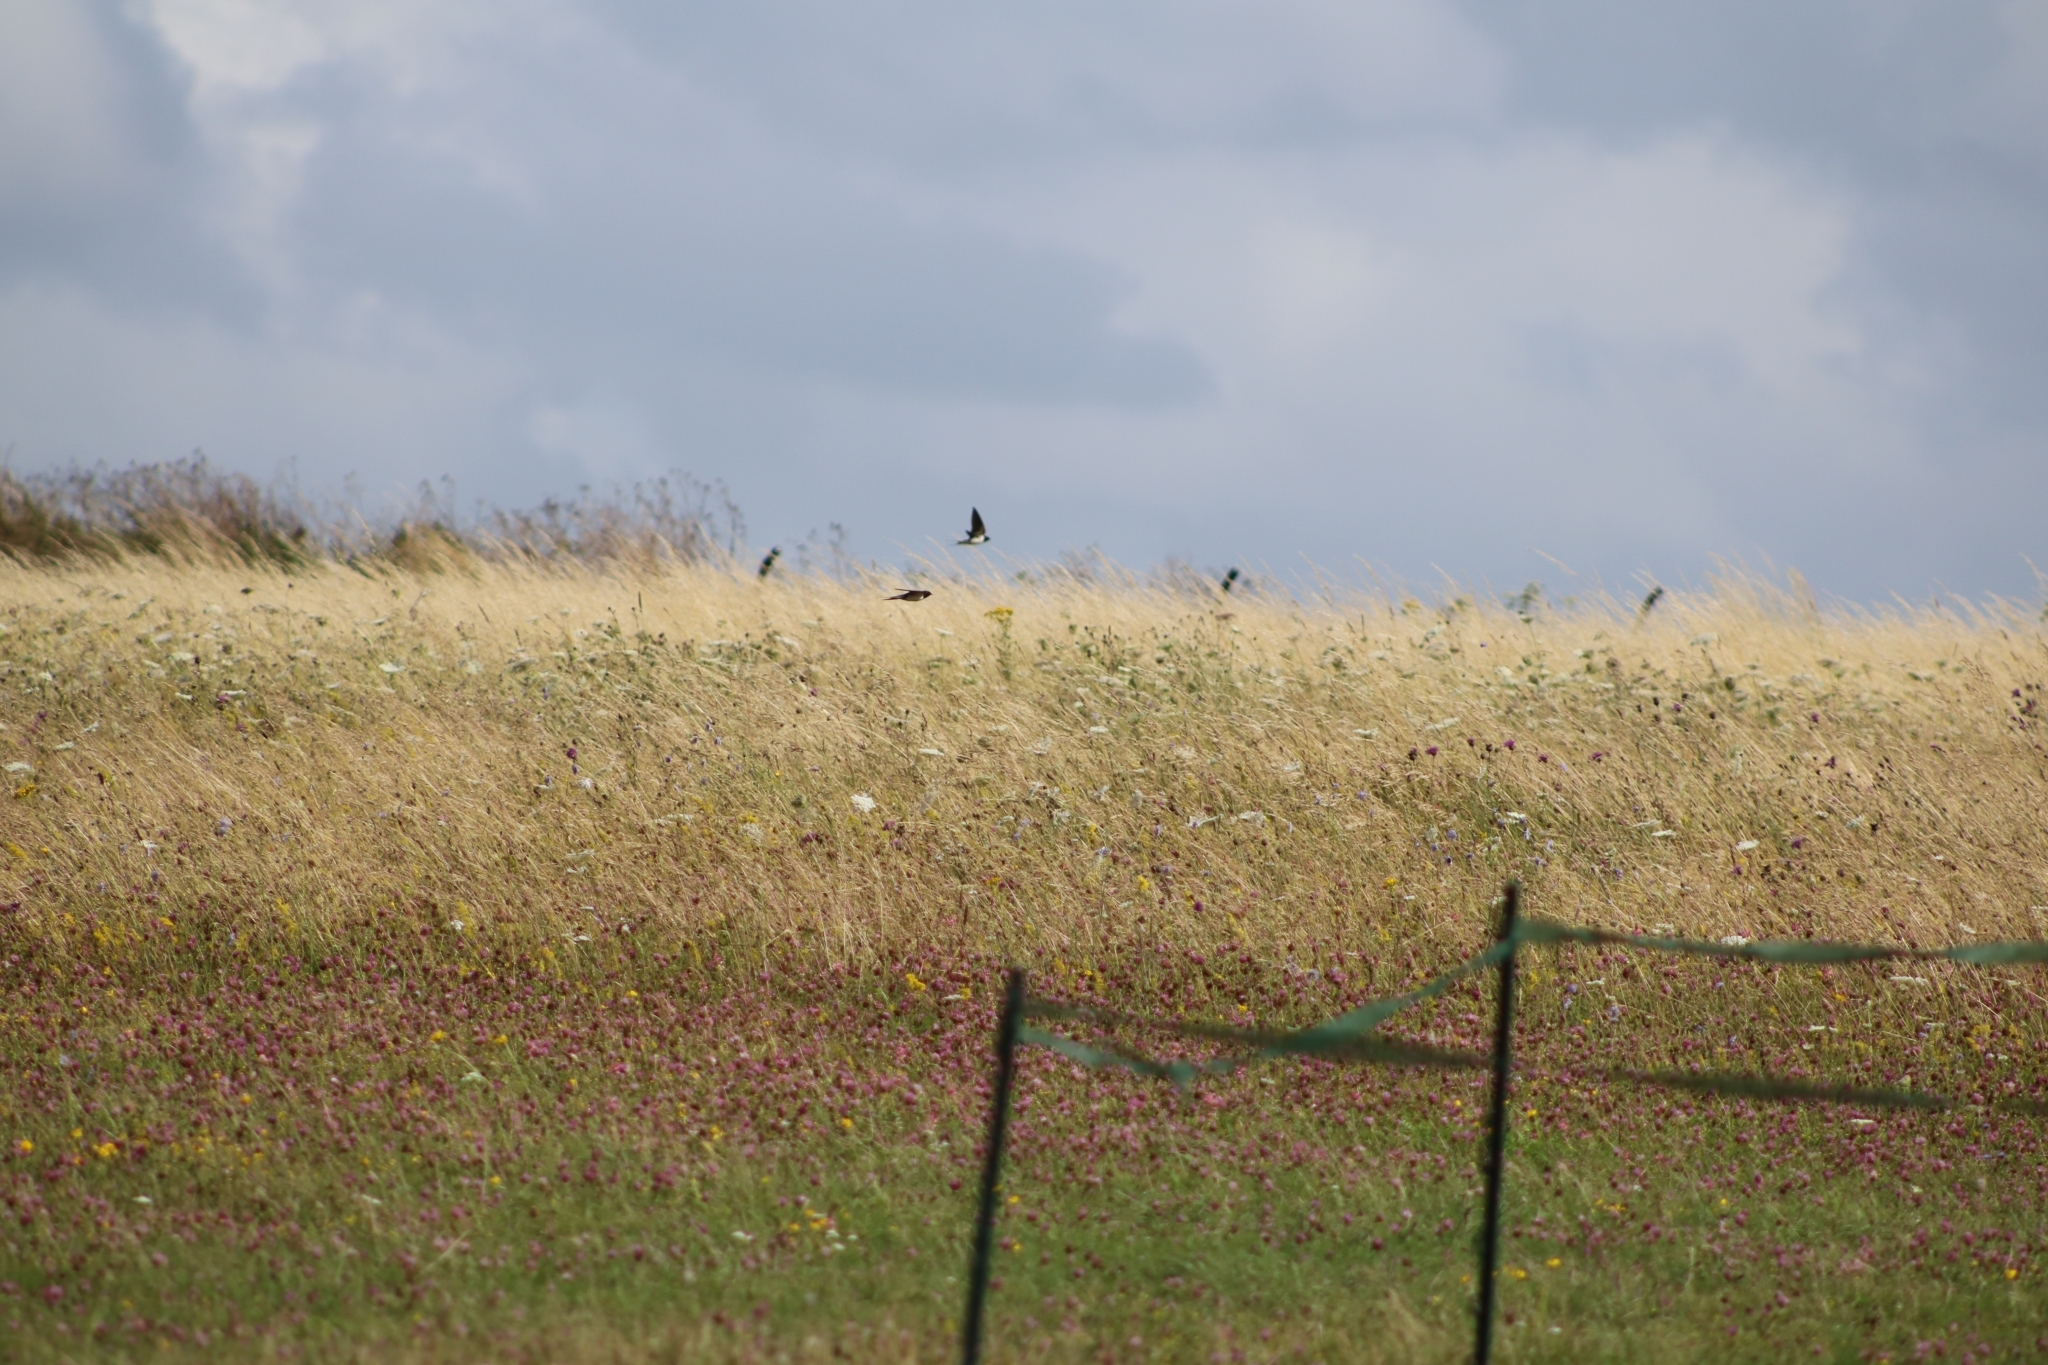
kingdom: Animalia
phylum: Chordata
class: Aves
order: Passeriformes
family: Hirundinidae
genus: Hirundo
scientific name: Hirundo rustica
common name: Barn swallow
